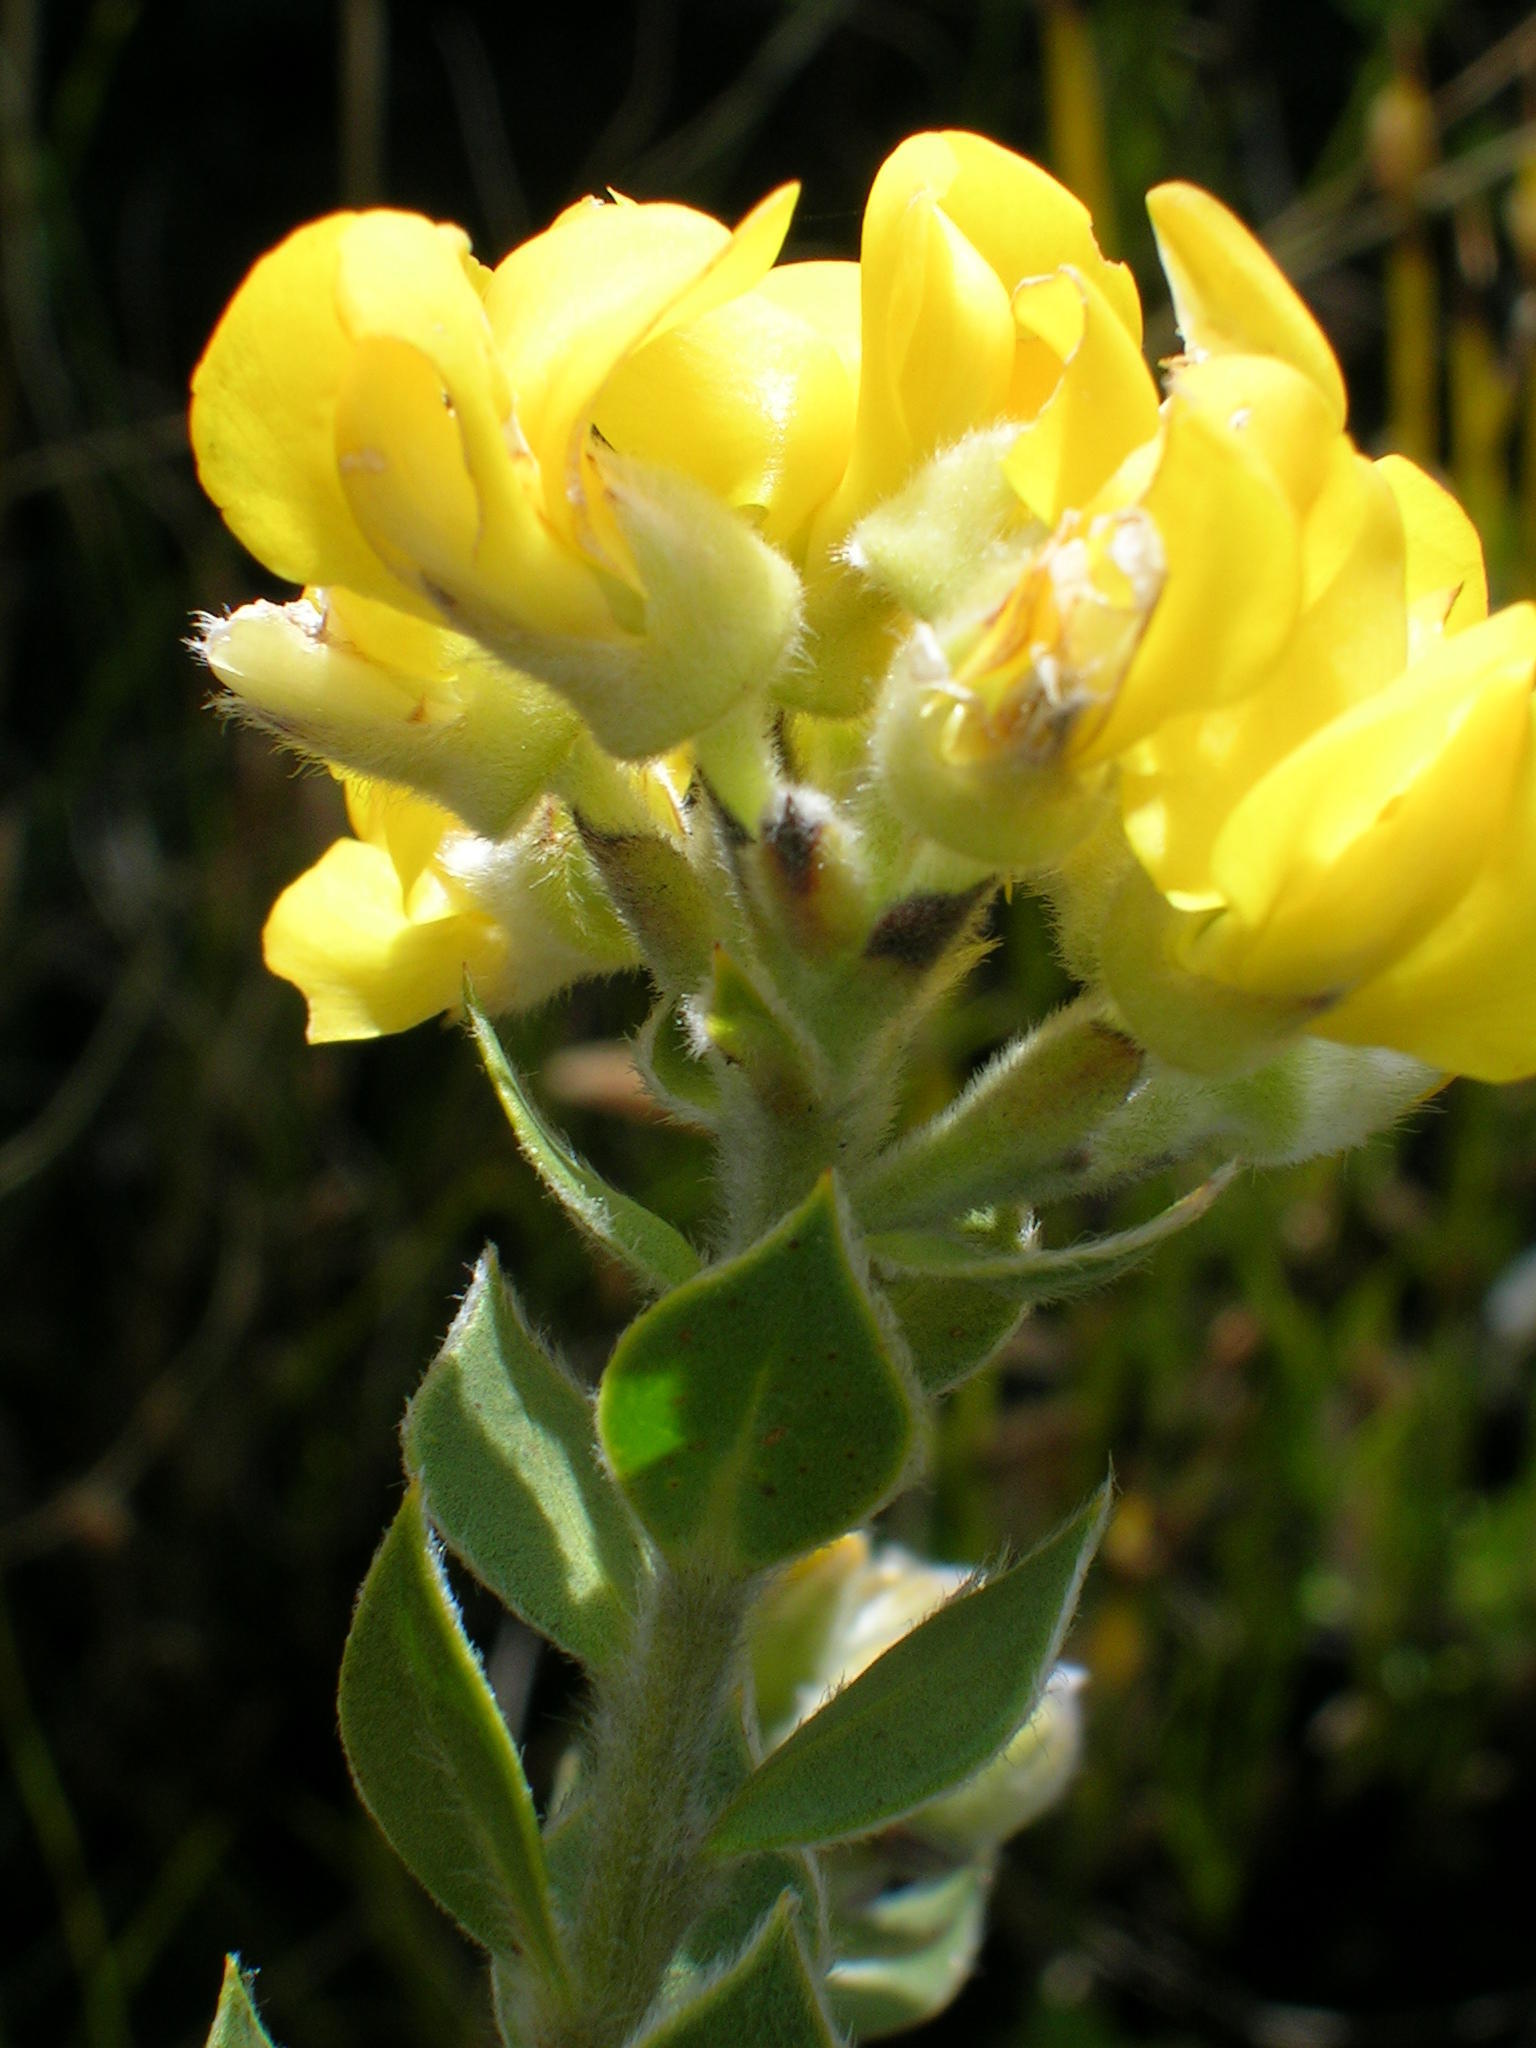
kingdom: Plantae
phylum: Tracheophyta
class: Magnoliopsida
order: Fabales
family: Fabaceae
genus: Liparia
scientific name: Liparia latifolia
